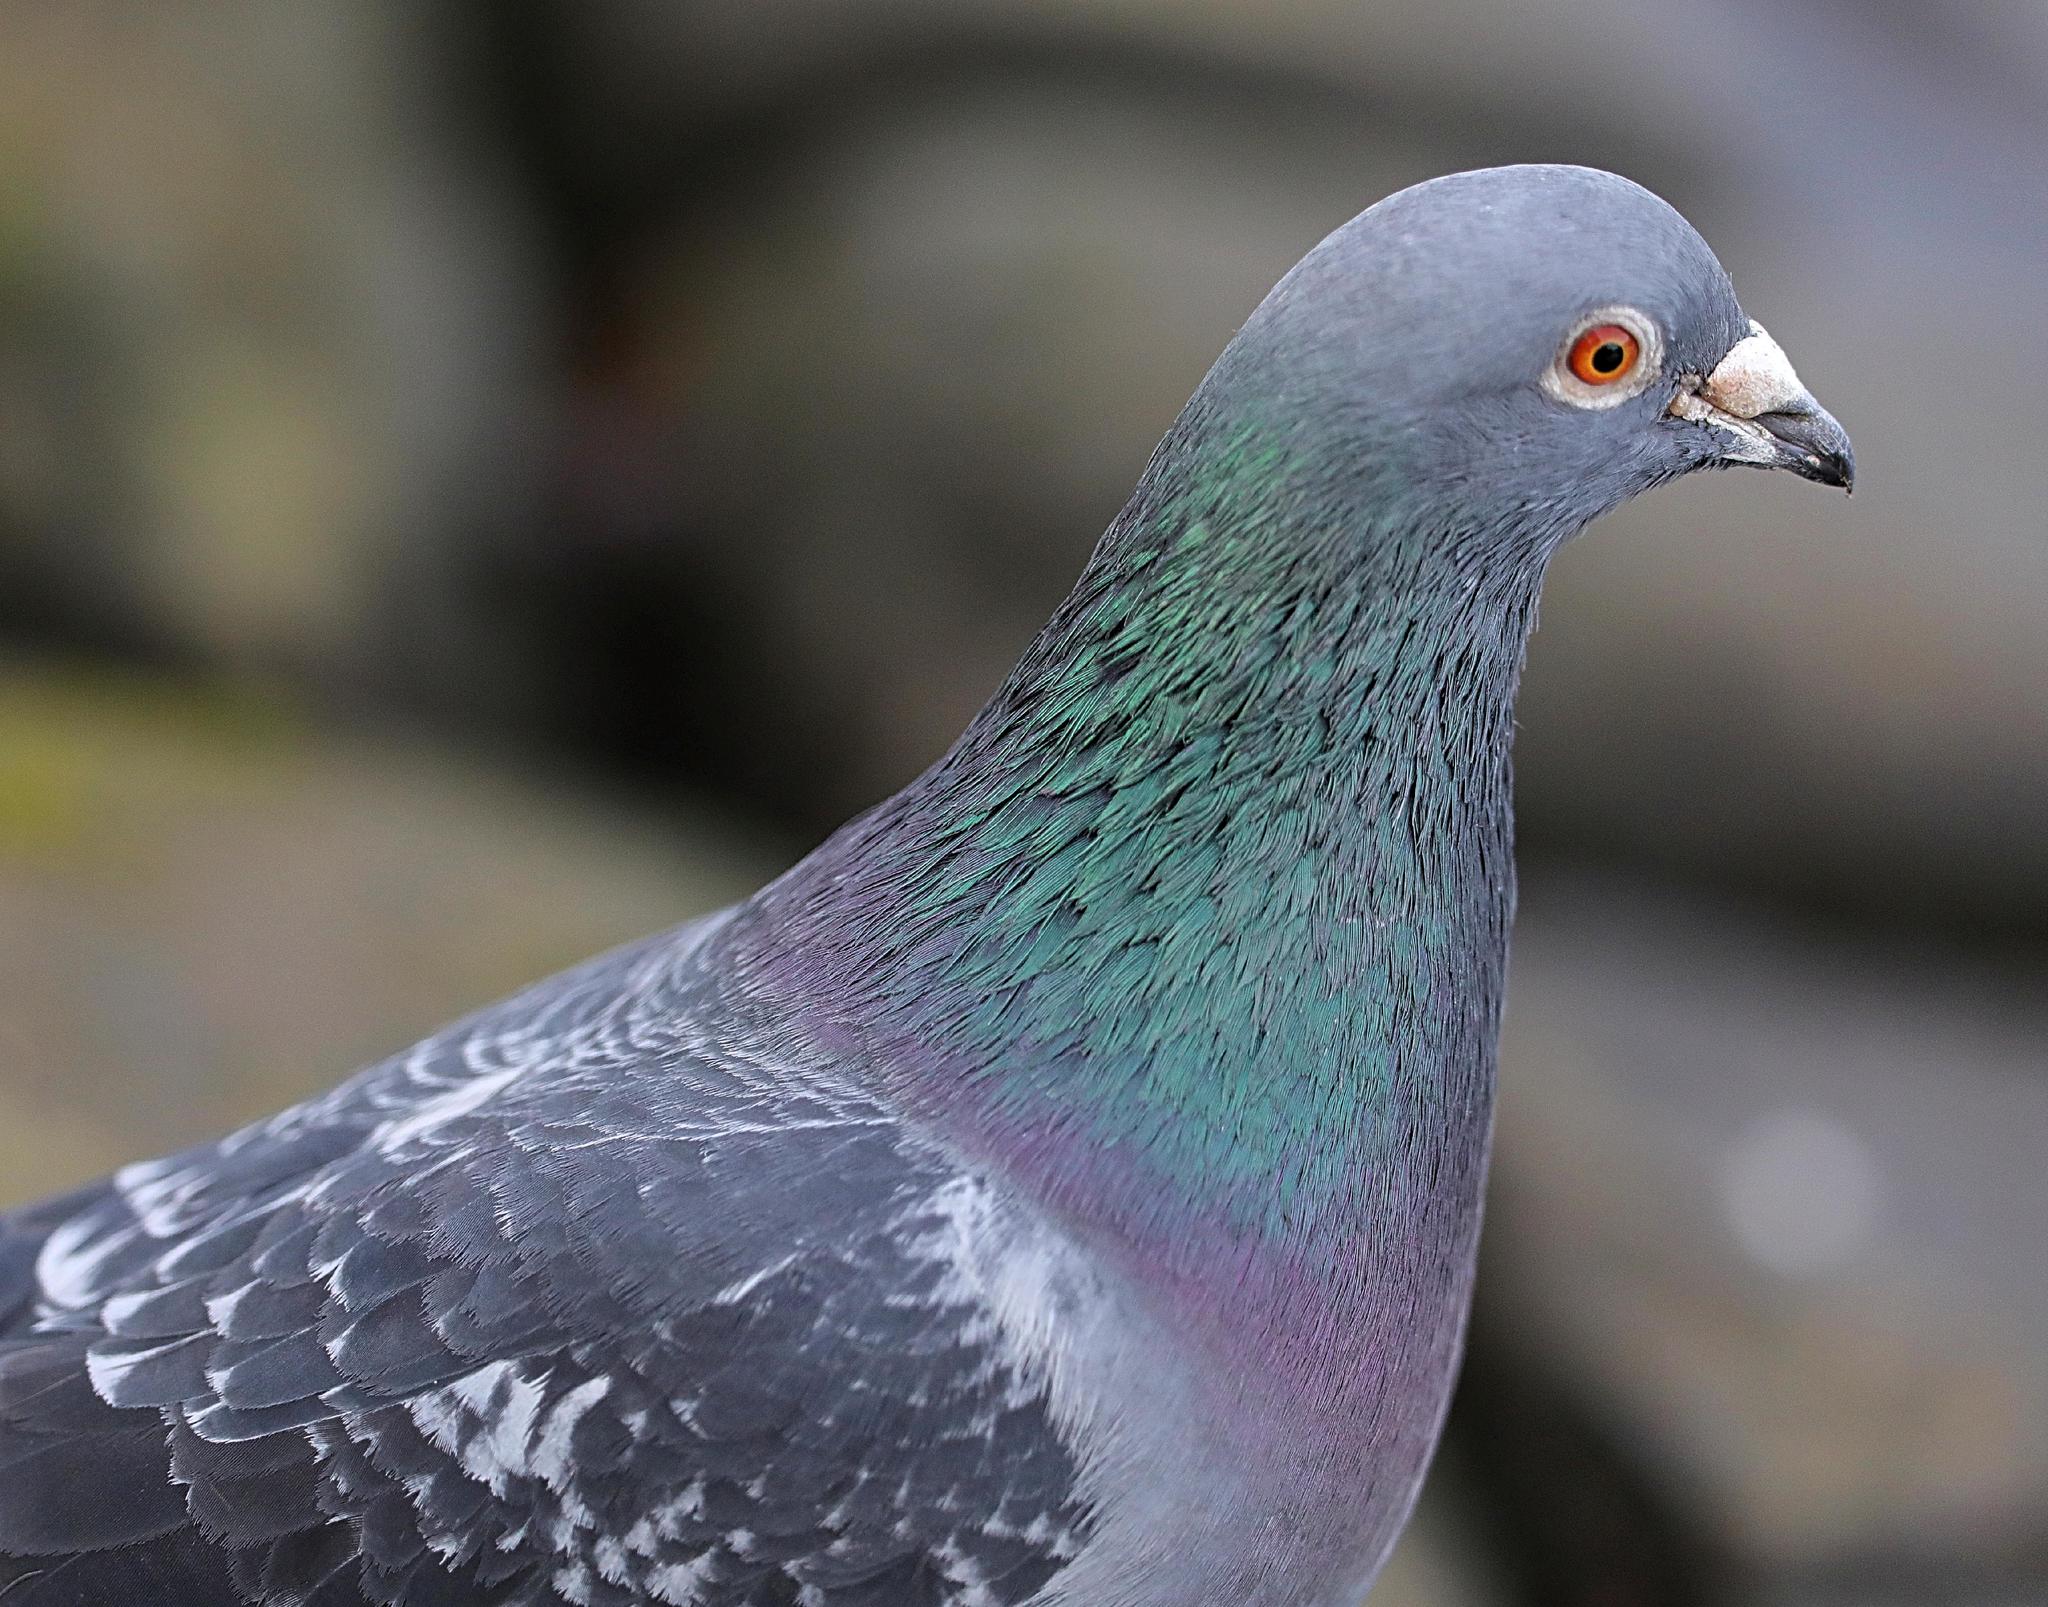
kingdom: Animalia
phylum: Chordata
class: Aves
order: Columbiformes
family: Columbidae
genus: Columba
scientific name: Columba livia
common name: Rock pigeon
